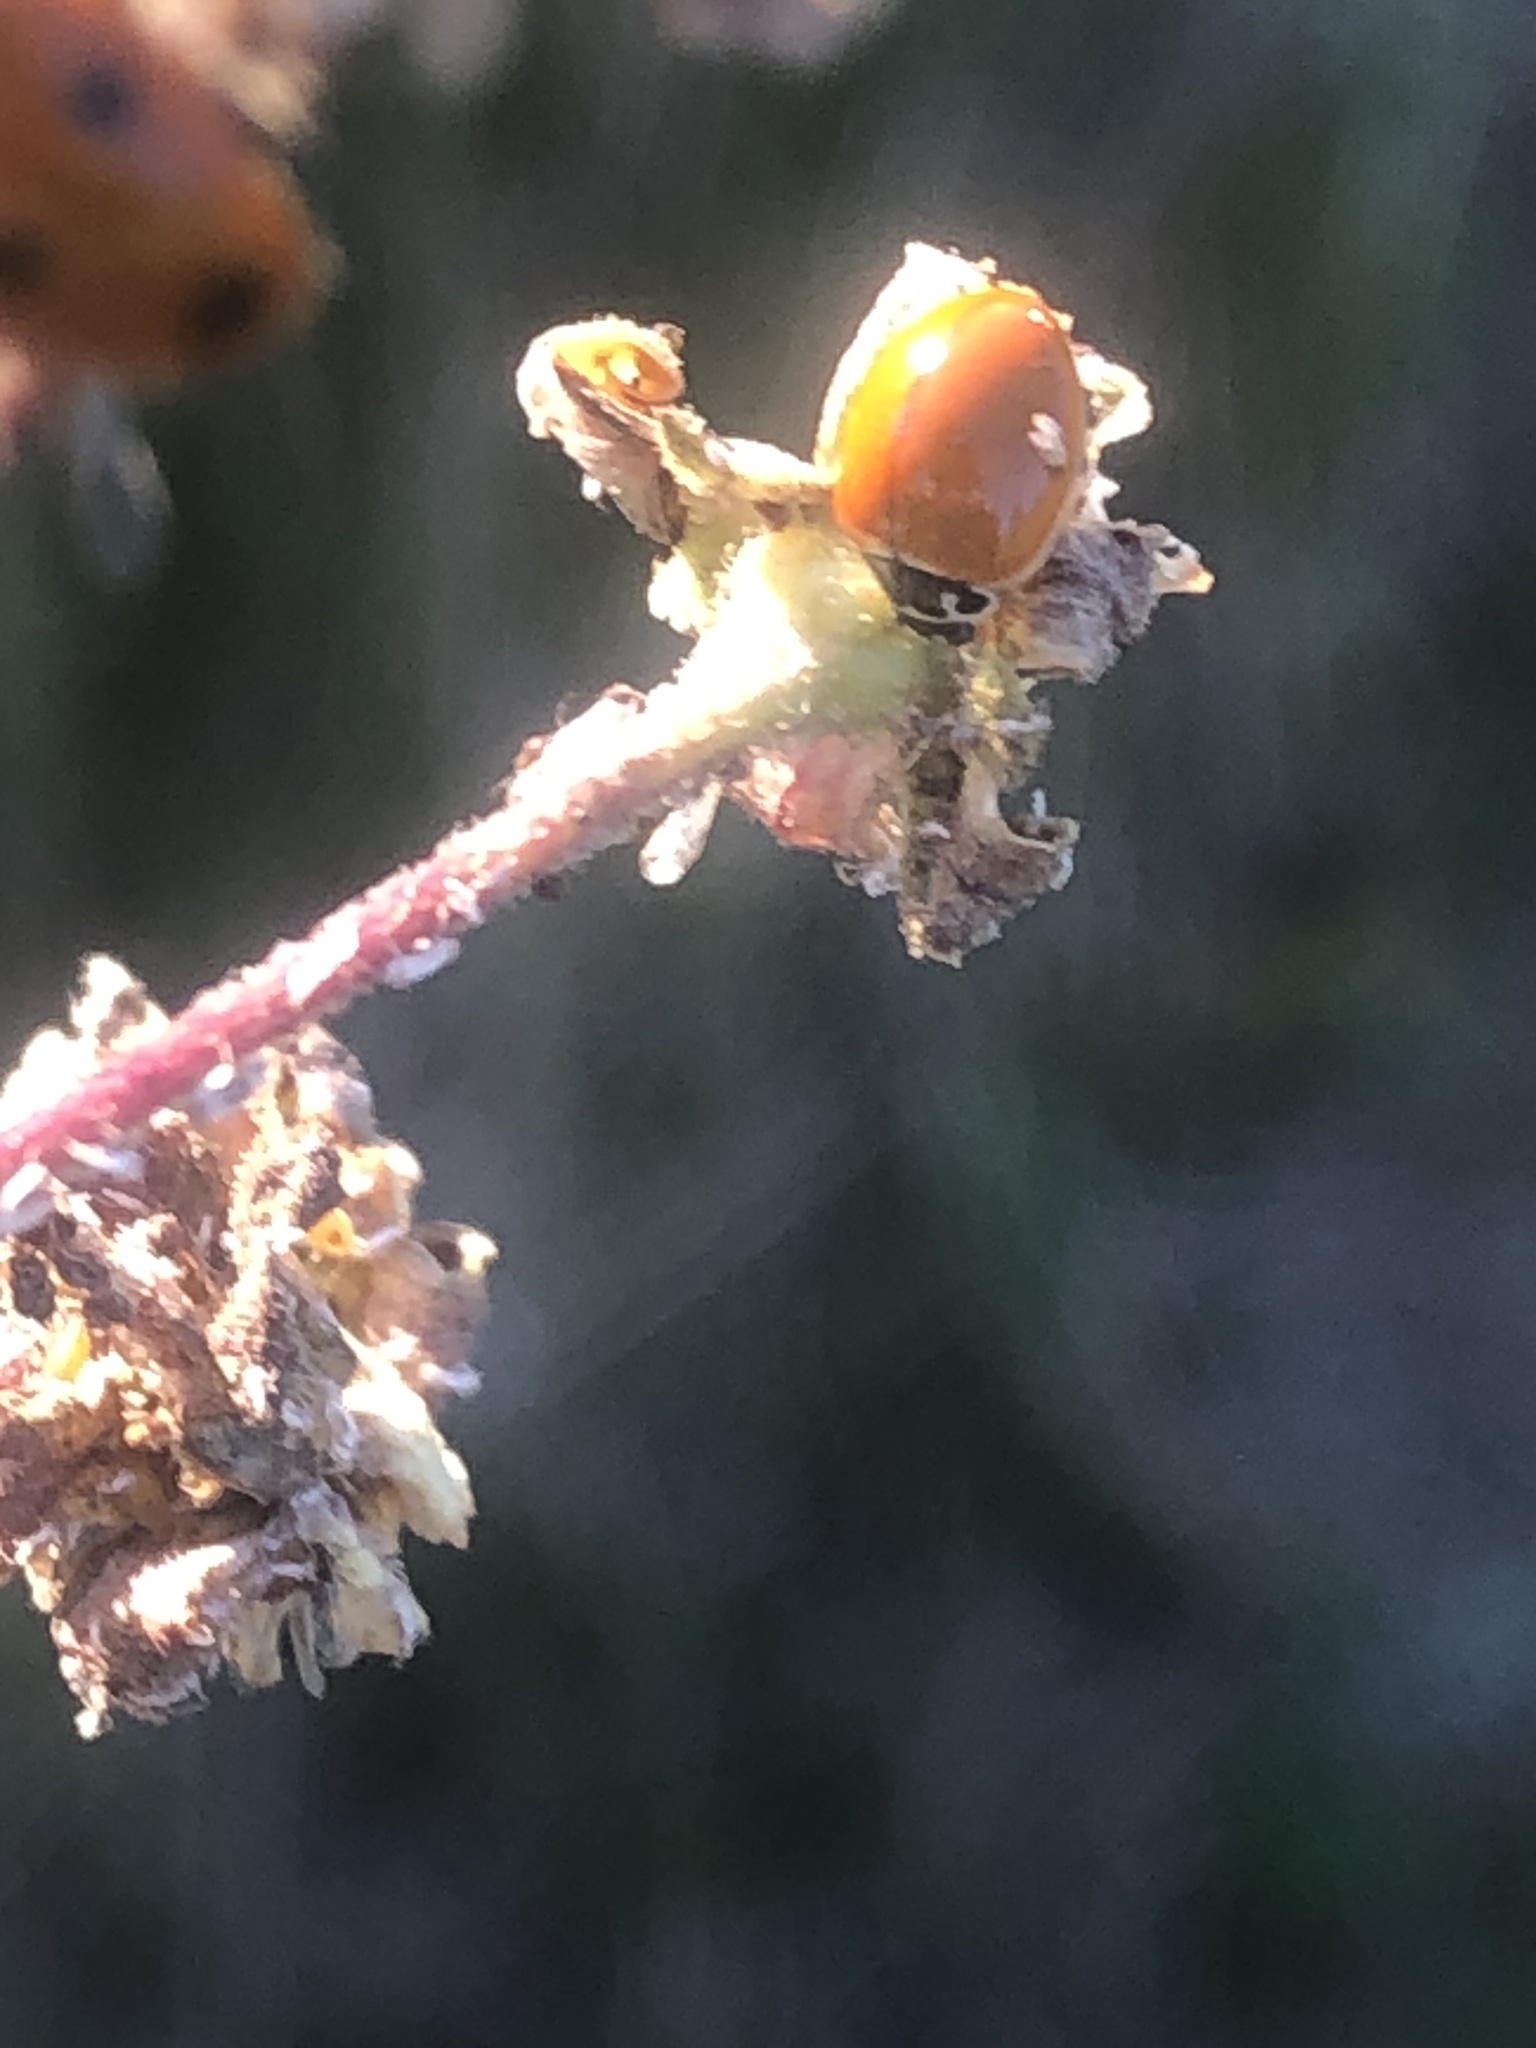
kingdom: Animalia
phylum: Arthropoda
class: Insecta
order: Coleoptera
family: Coccinellidae
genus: Cycloneda
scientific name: Cycloneda munda
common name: Polished lady beetle
